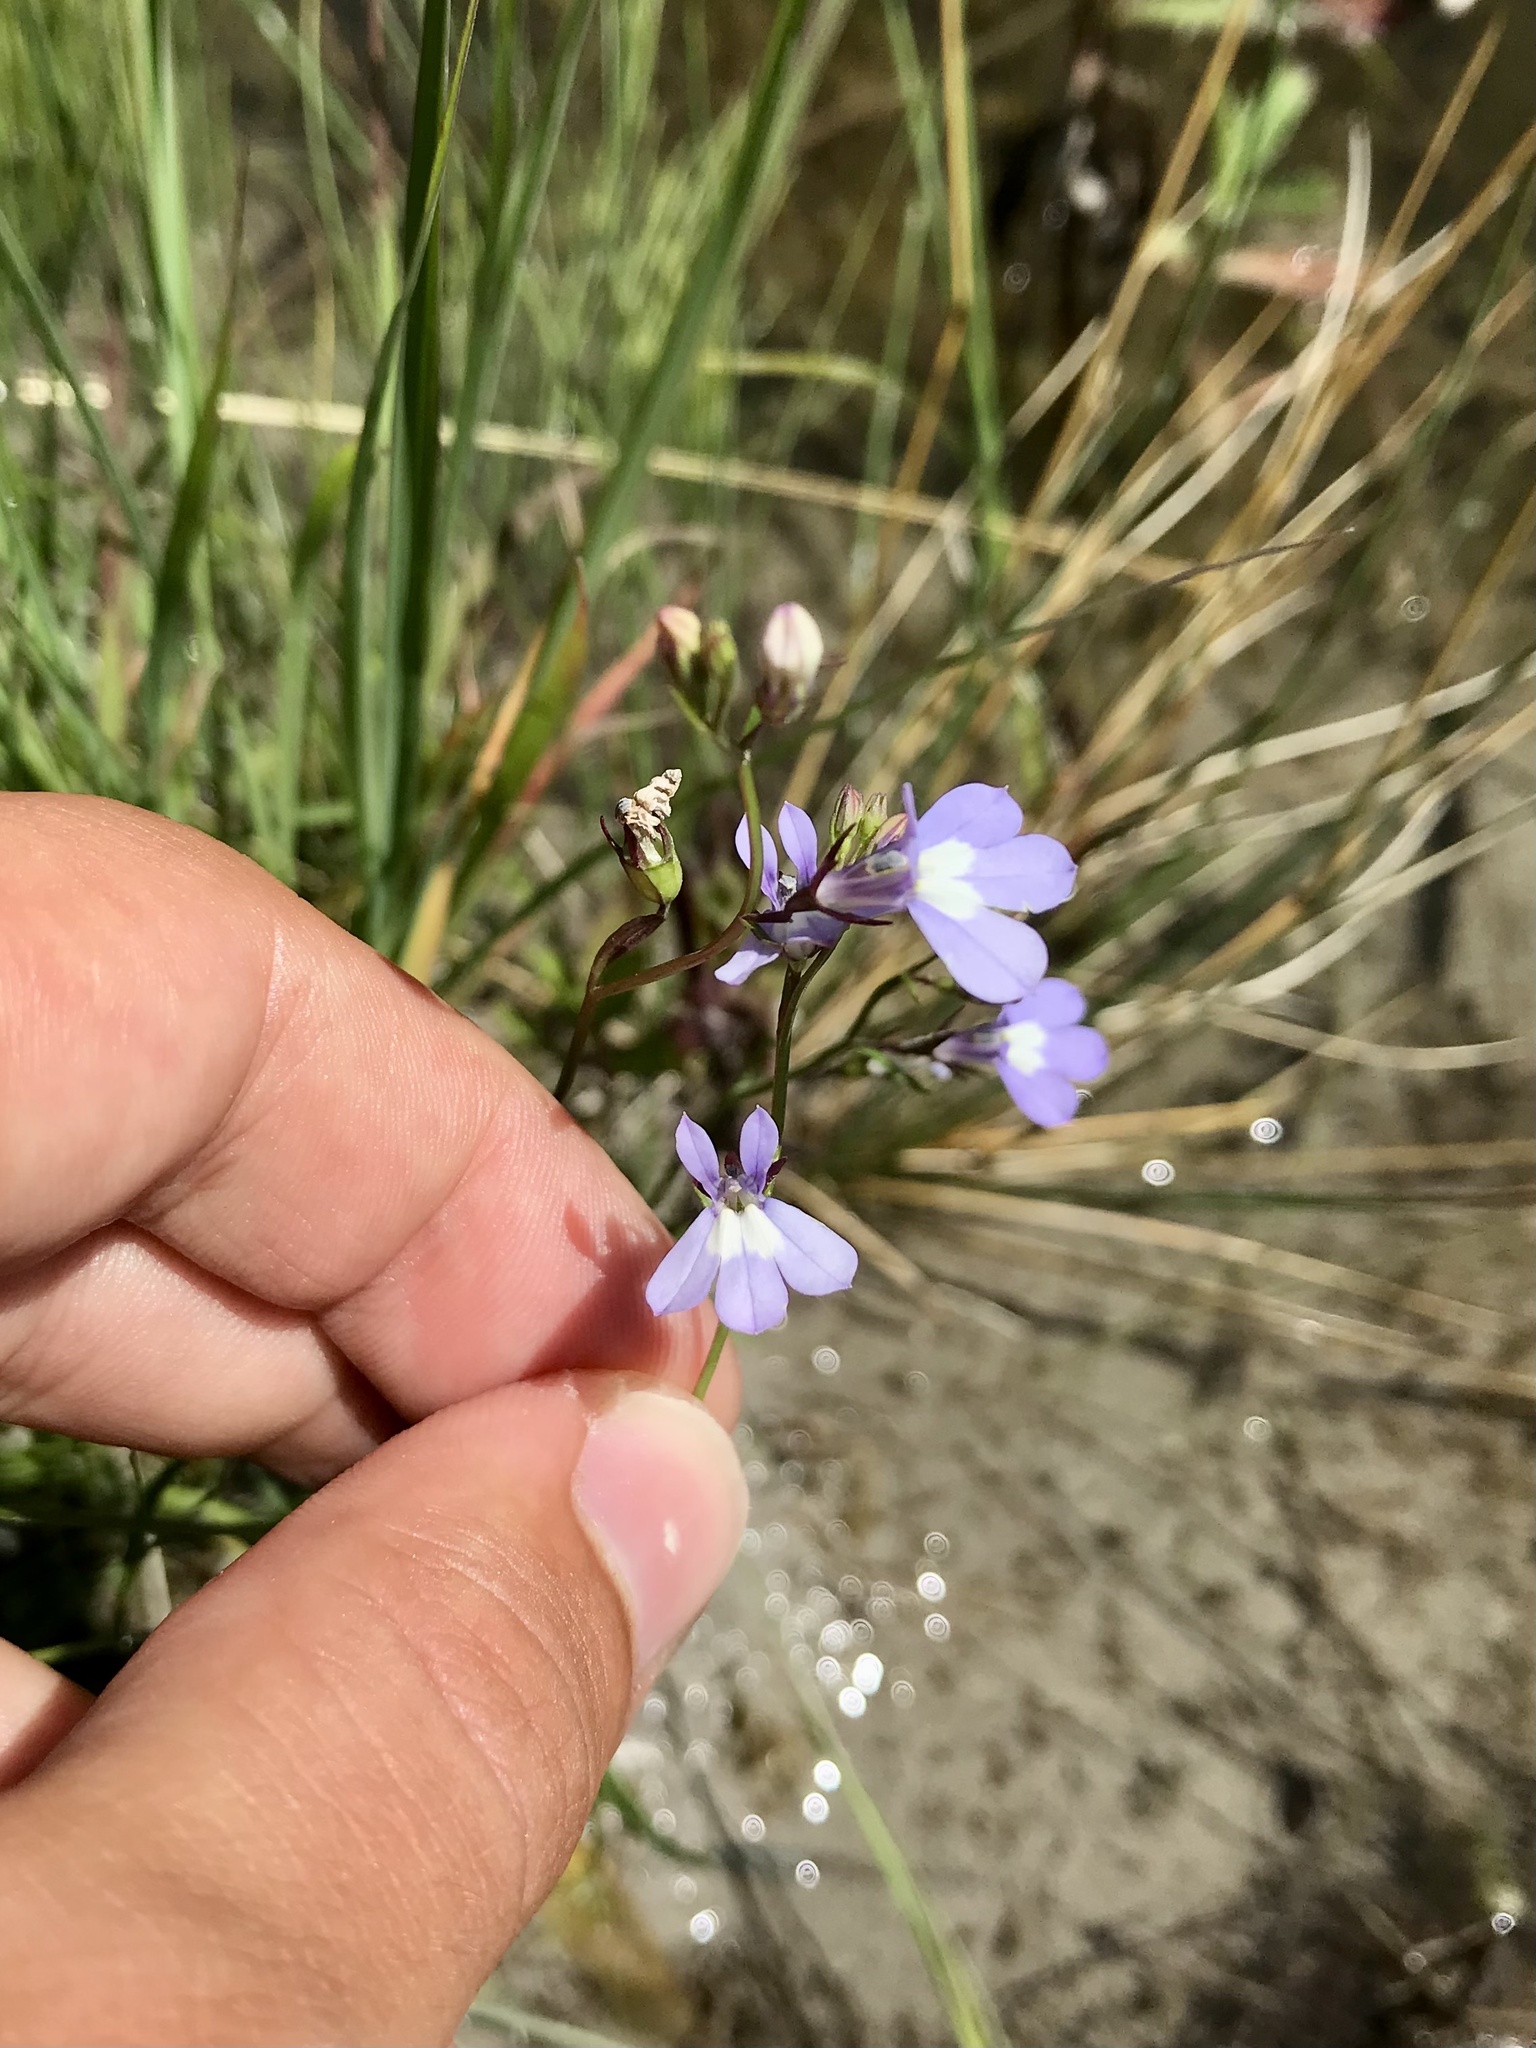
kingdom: Plantae
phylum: Tracheophyta
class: Magnoliopsida
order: Asterales
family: Campanulaceae
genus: Lobelia
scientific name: Lobelia kalmii
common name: Kalm's lobelia
